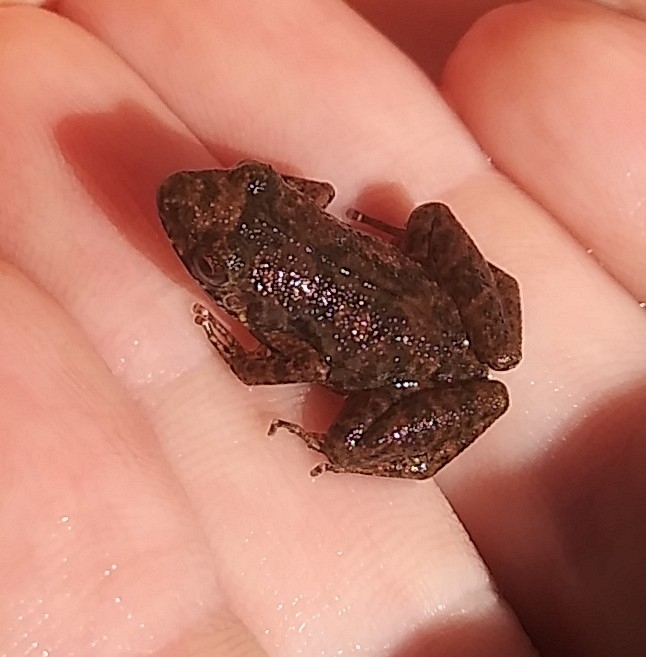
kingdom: Animalia
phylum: Chordata
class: Amphibia
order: Anura
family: Eleutherodactylidae
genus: Eleutherodactylus
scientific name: Eleutherodactylus planirostris
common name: Greenhouse frog
